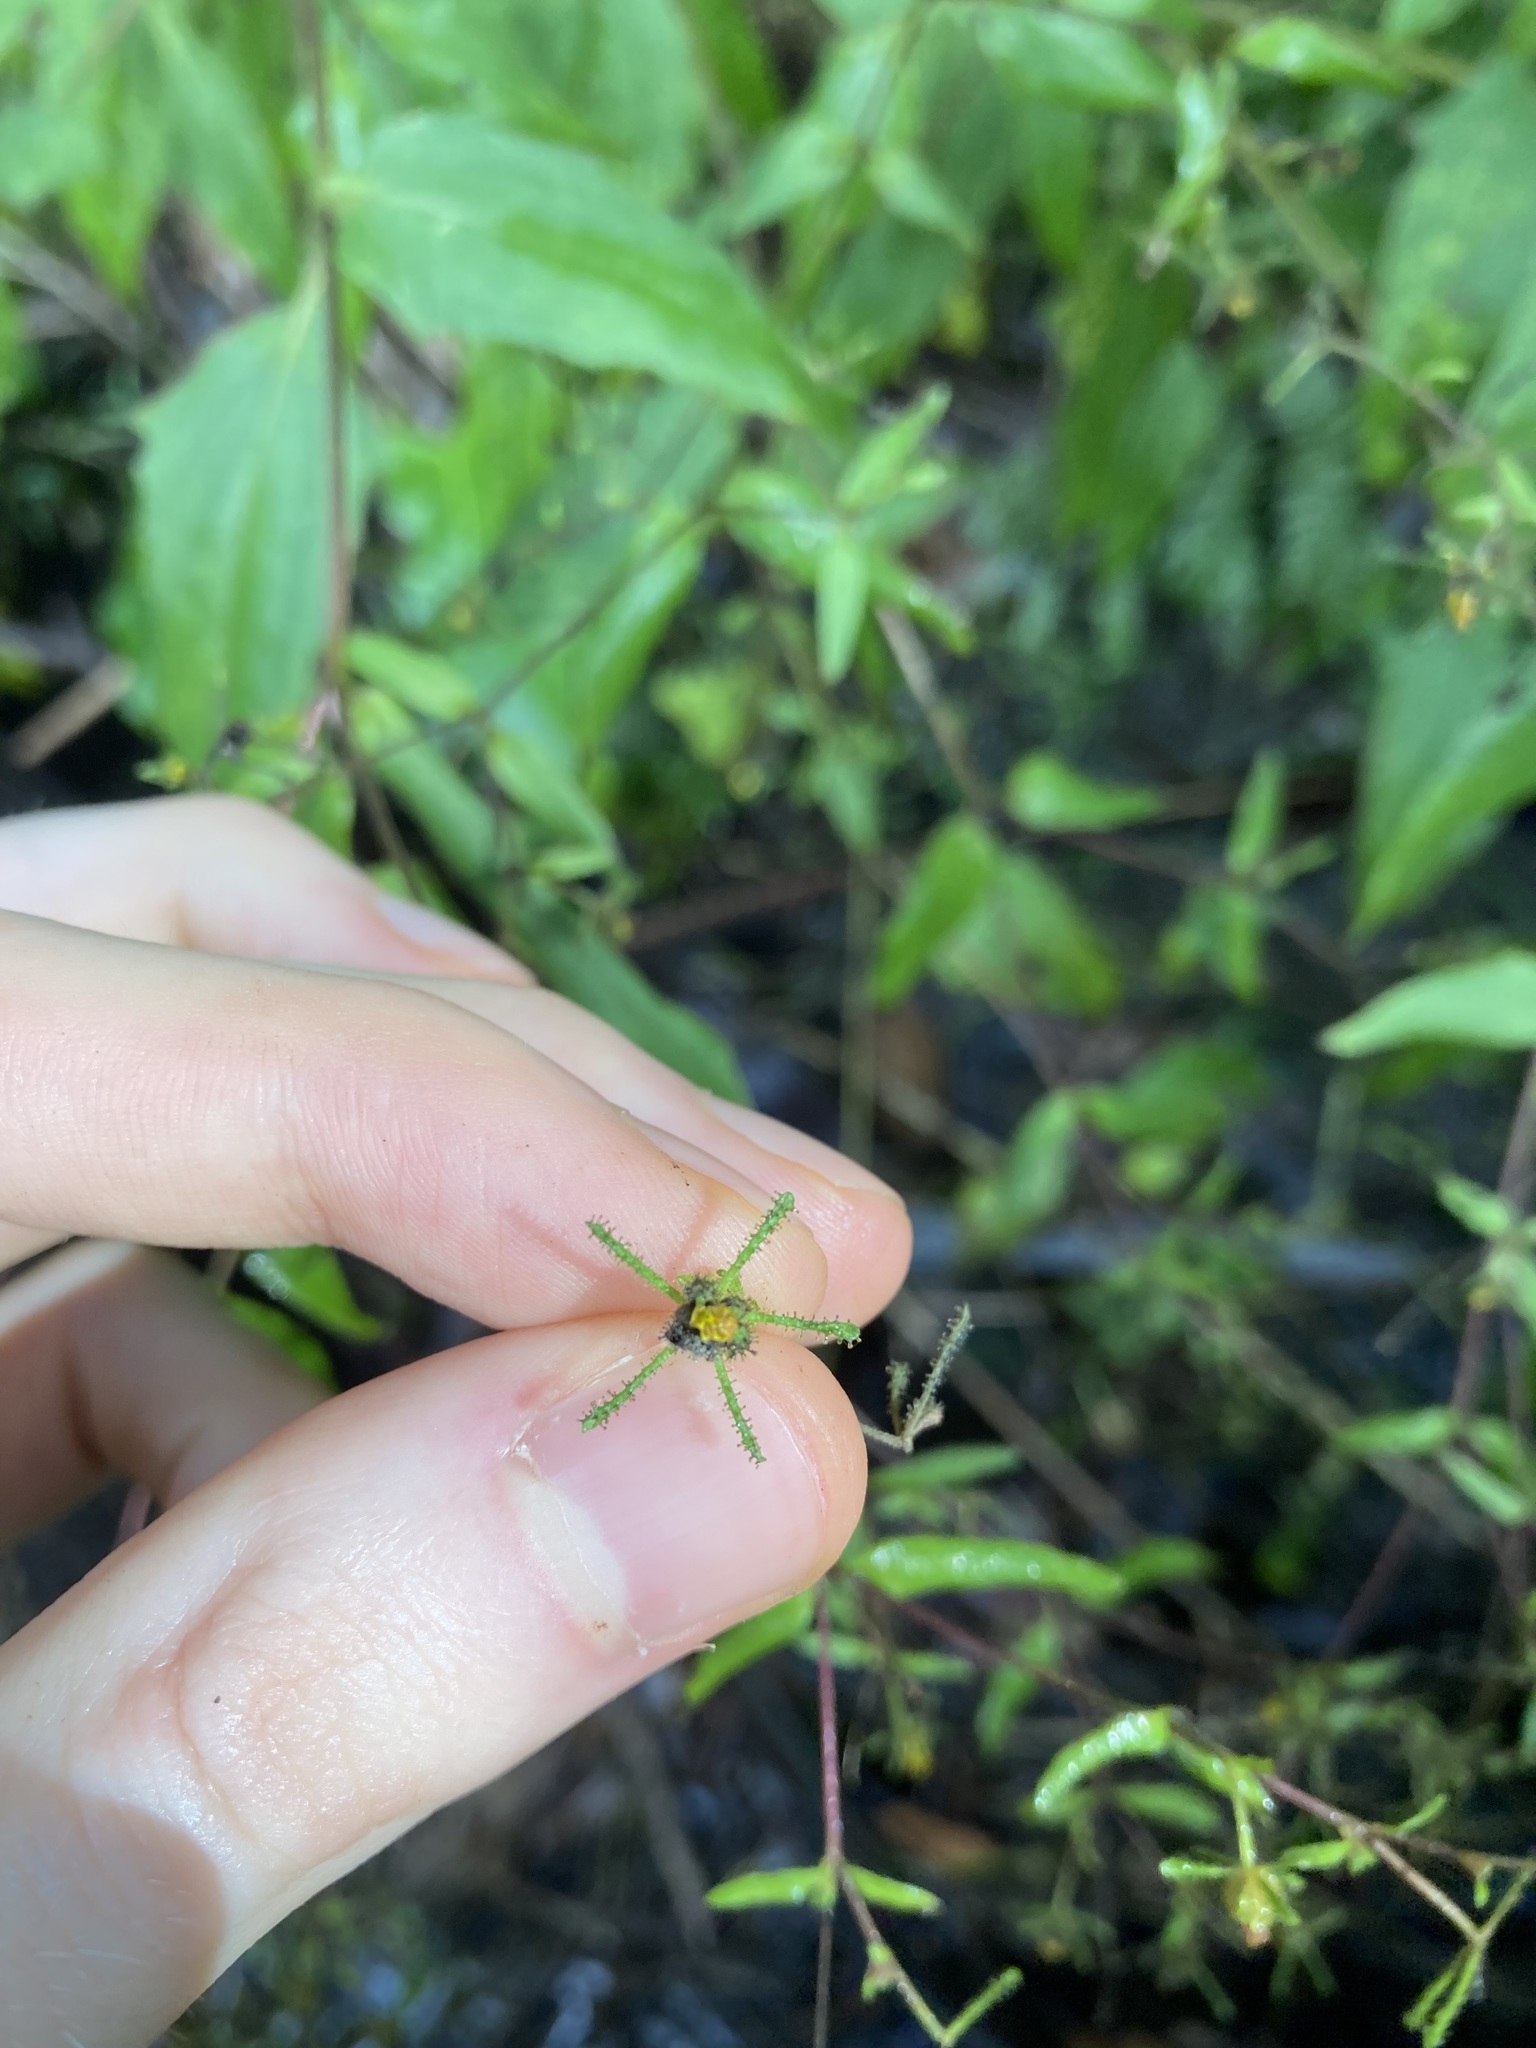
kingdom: Plantae
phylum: Tracheophyta
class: Magnoliopsida
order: Asterales
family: Asteraceae
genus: Sigesbeckia
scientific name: Sigesbeckia orientalis
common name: Eastern st paul's-wort
